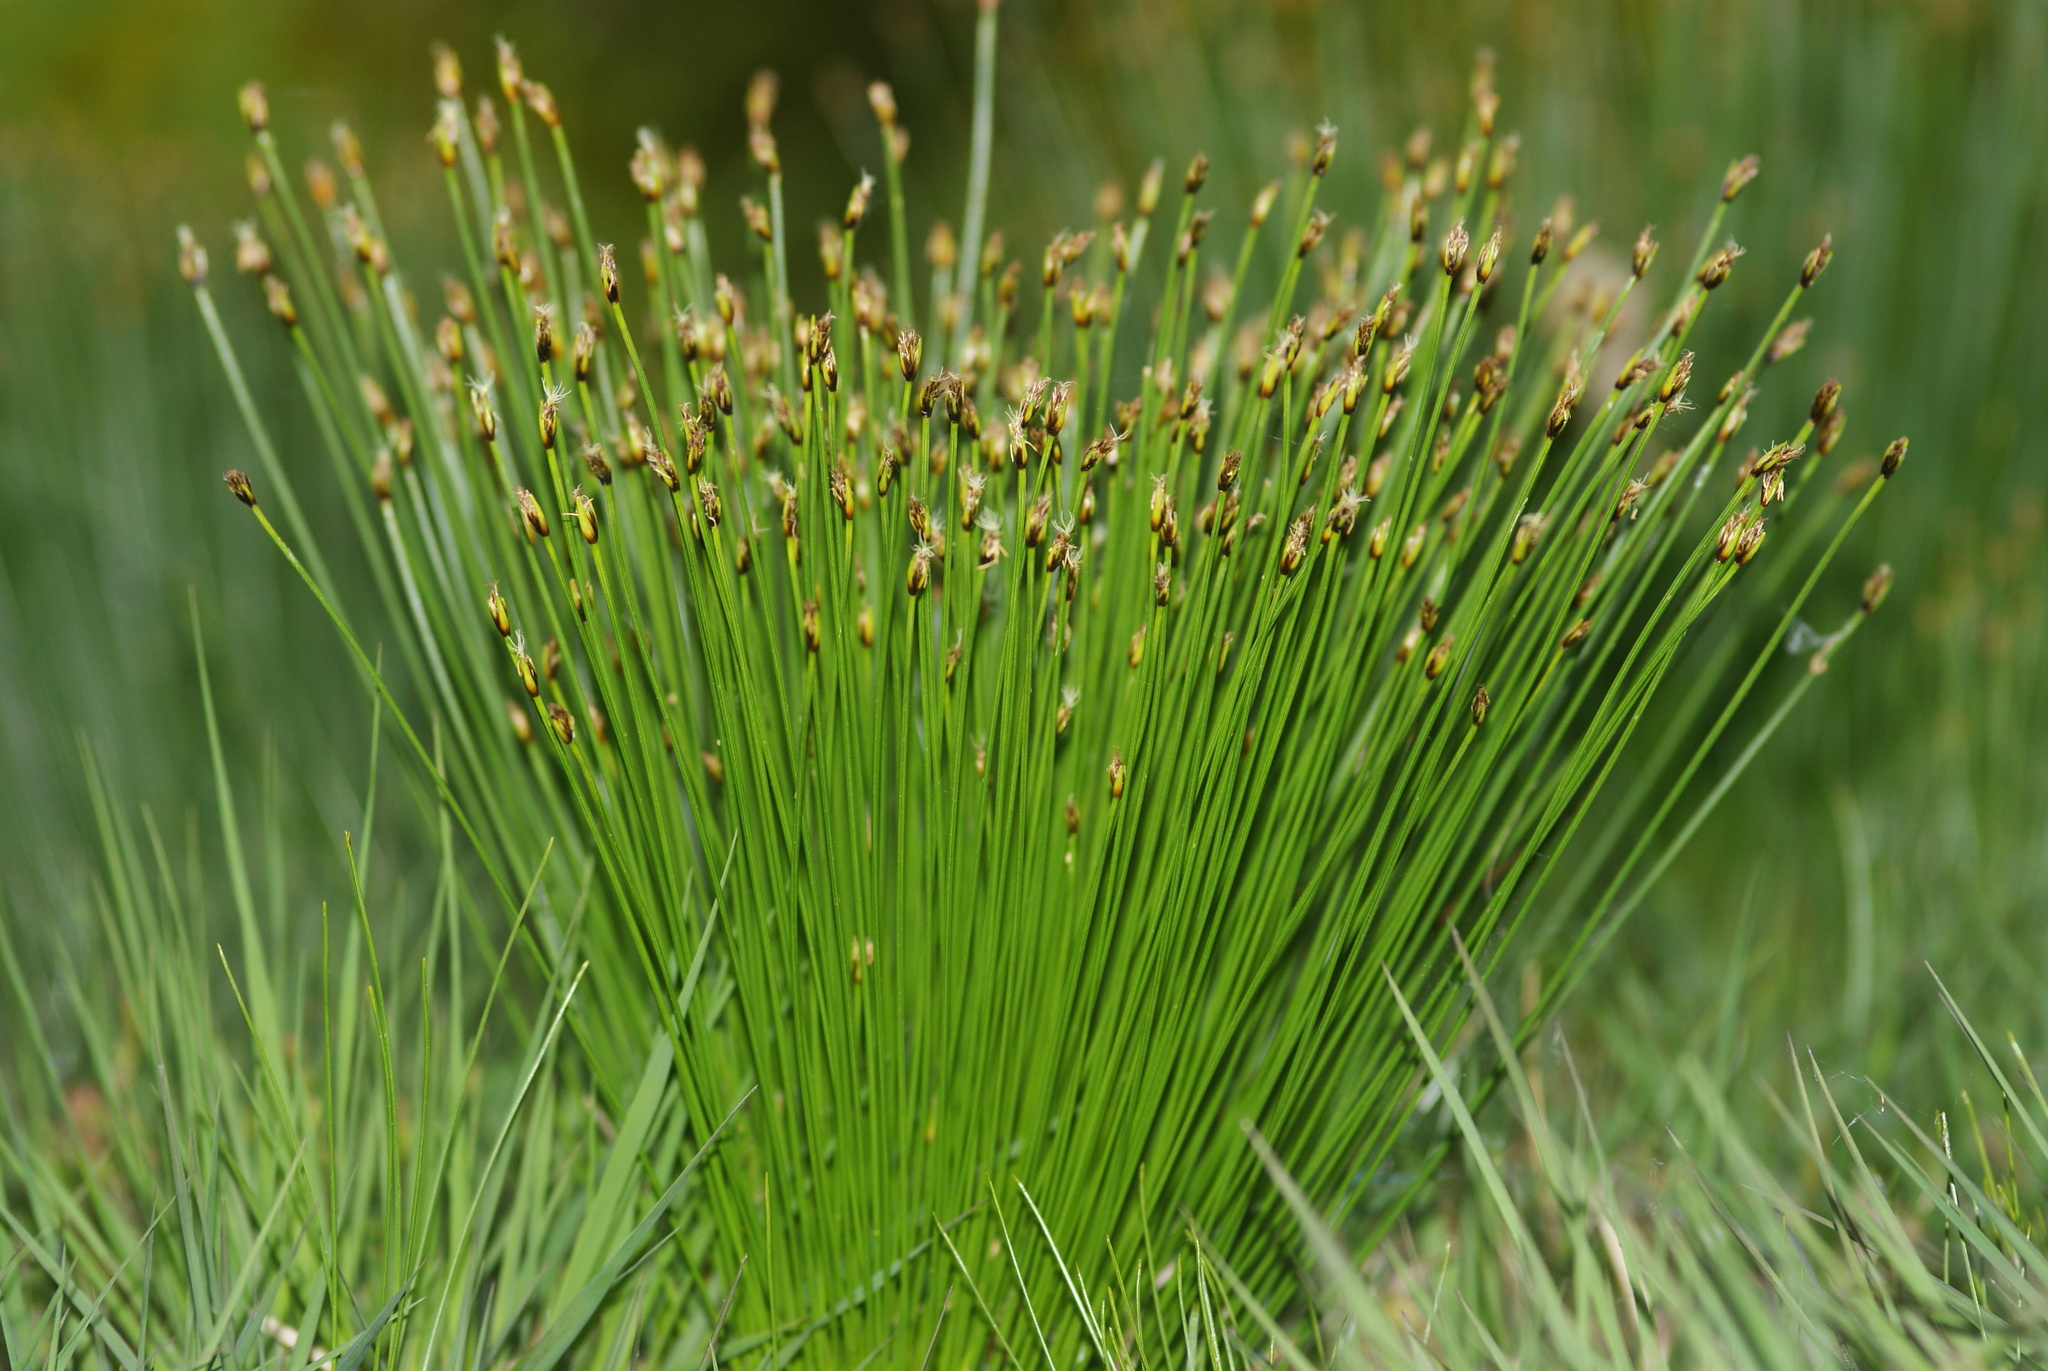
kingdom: Plantae
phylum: Tracheophyta
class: Liliopsida
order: Poales
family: Cyperaceae
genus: Trichophorum
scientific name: Trichophorum cespitosum
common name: Cespitose bulrush
